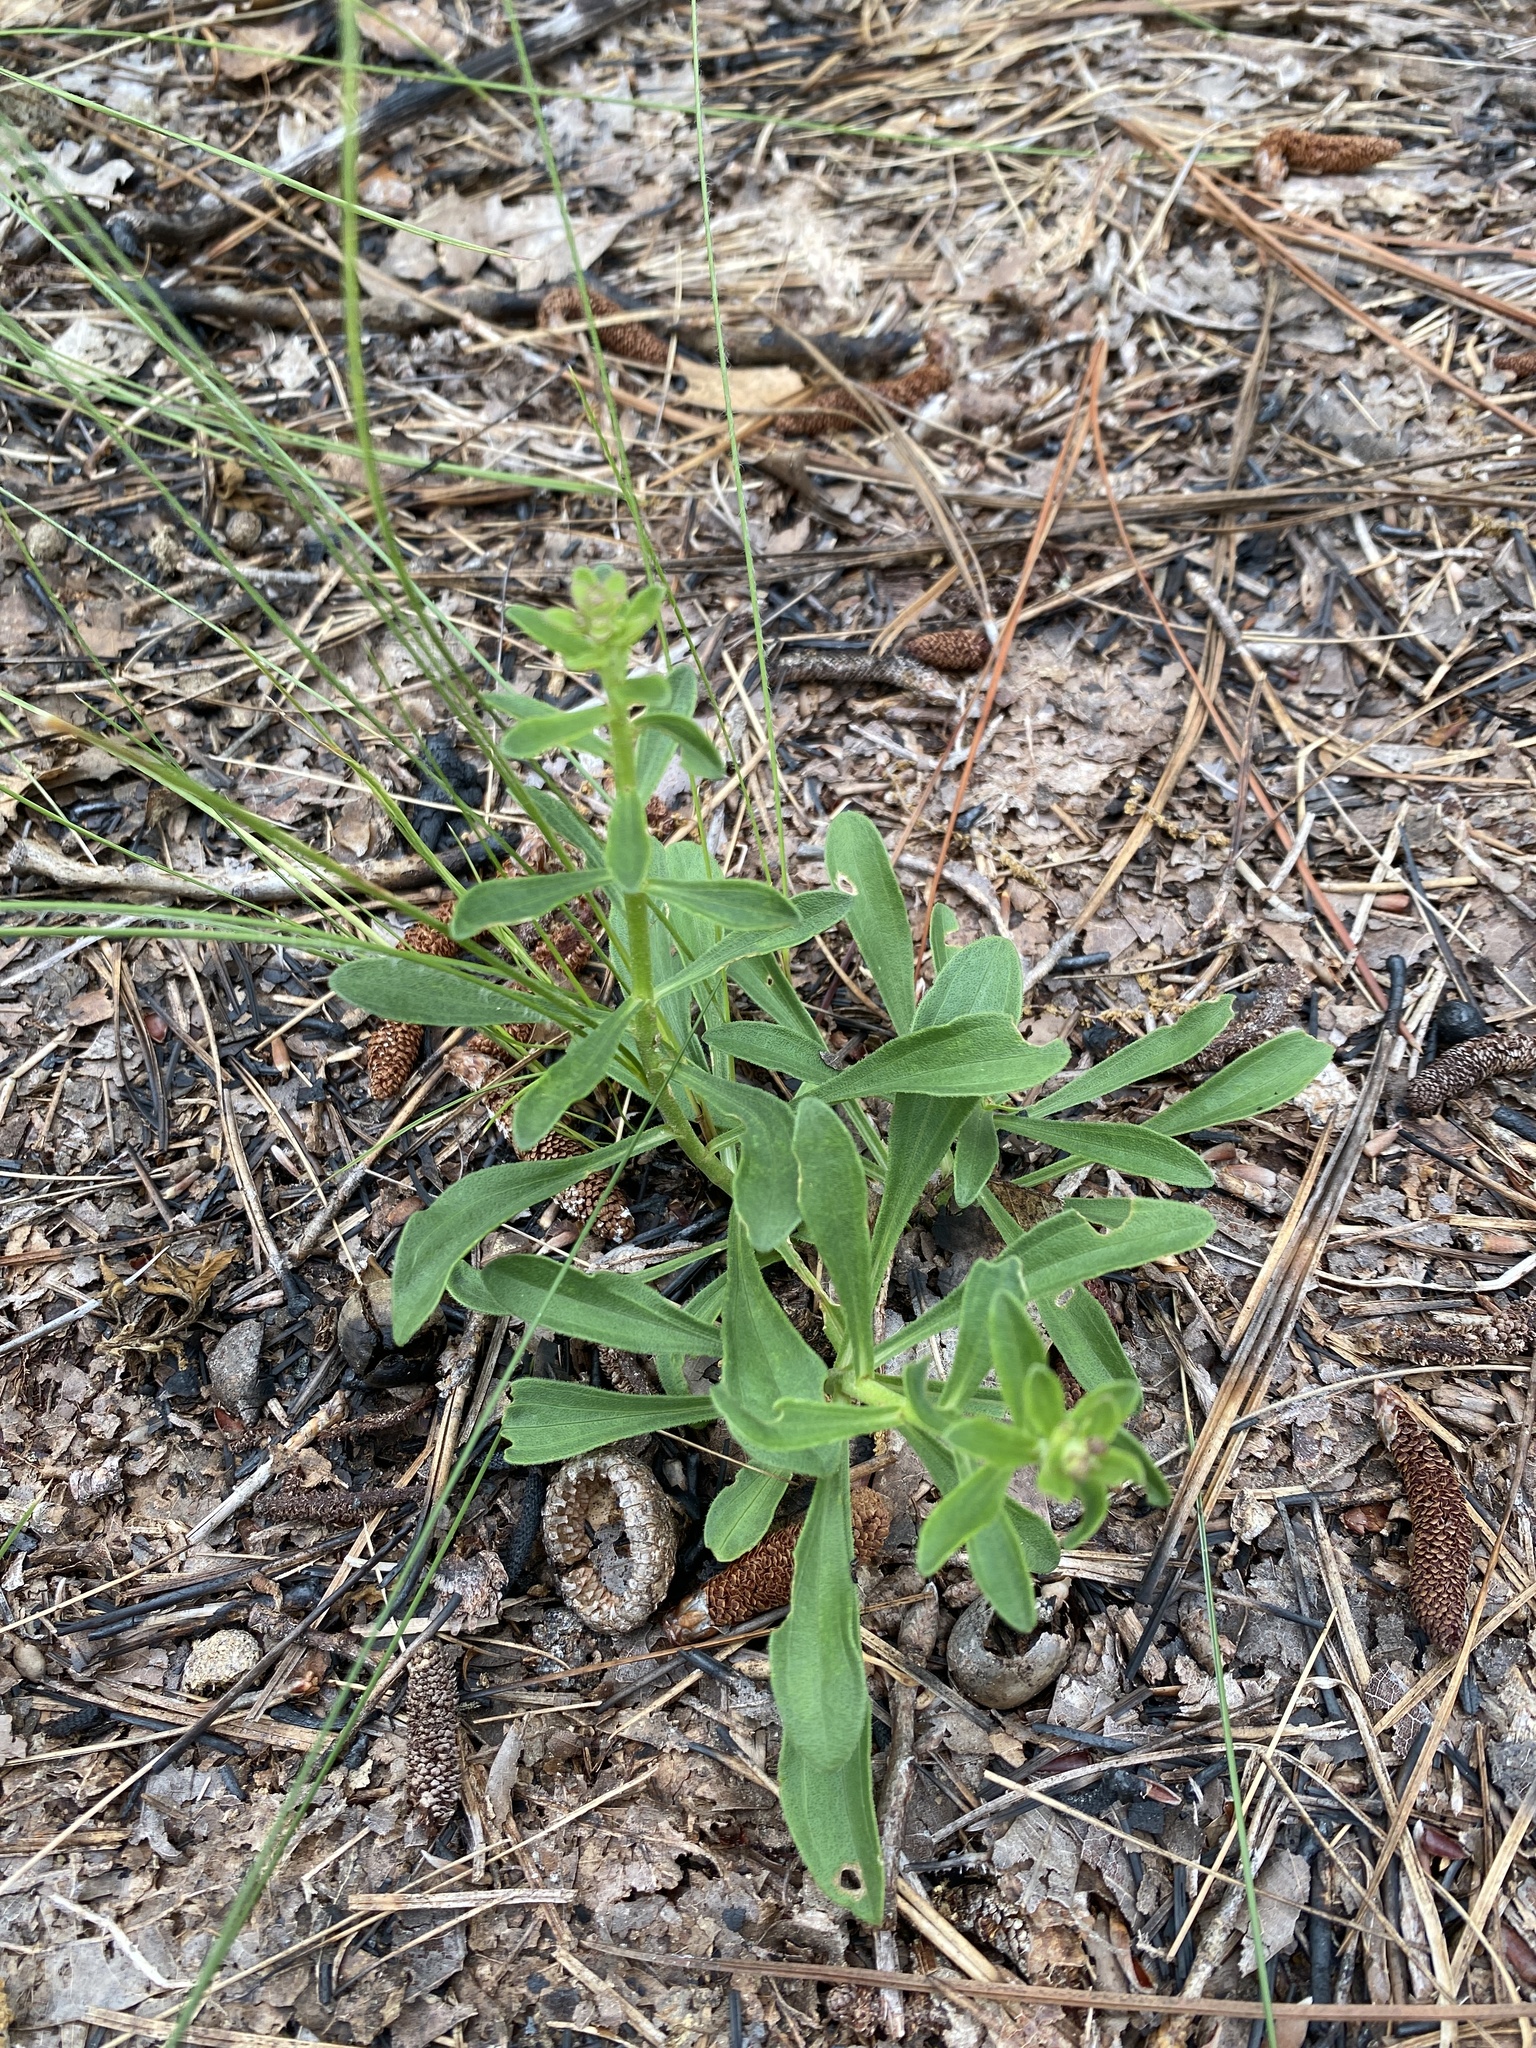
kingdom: Plantae
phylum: Tracheophyta
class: Magnoliopsida
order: Asterales
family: Asteraceae
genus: Carphephorus
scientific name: Carphephorus bellidifolius
